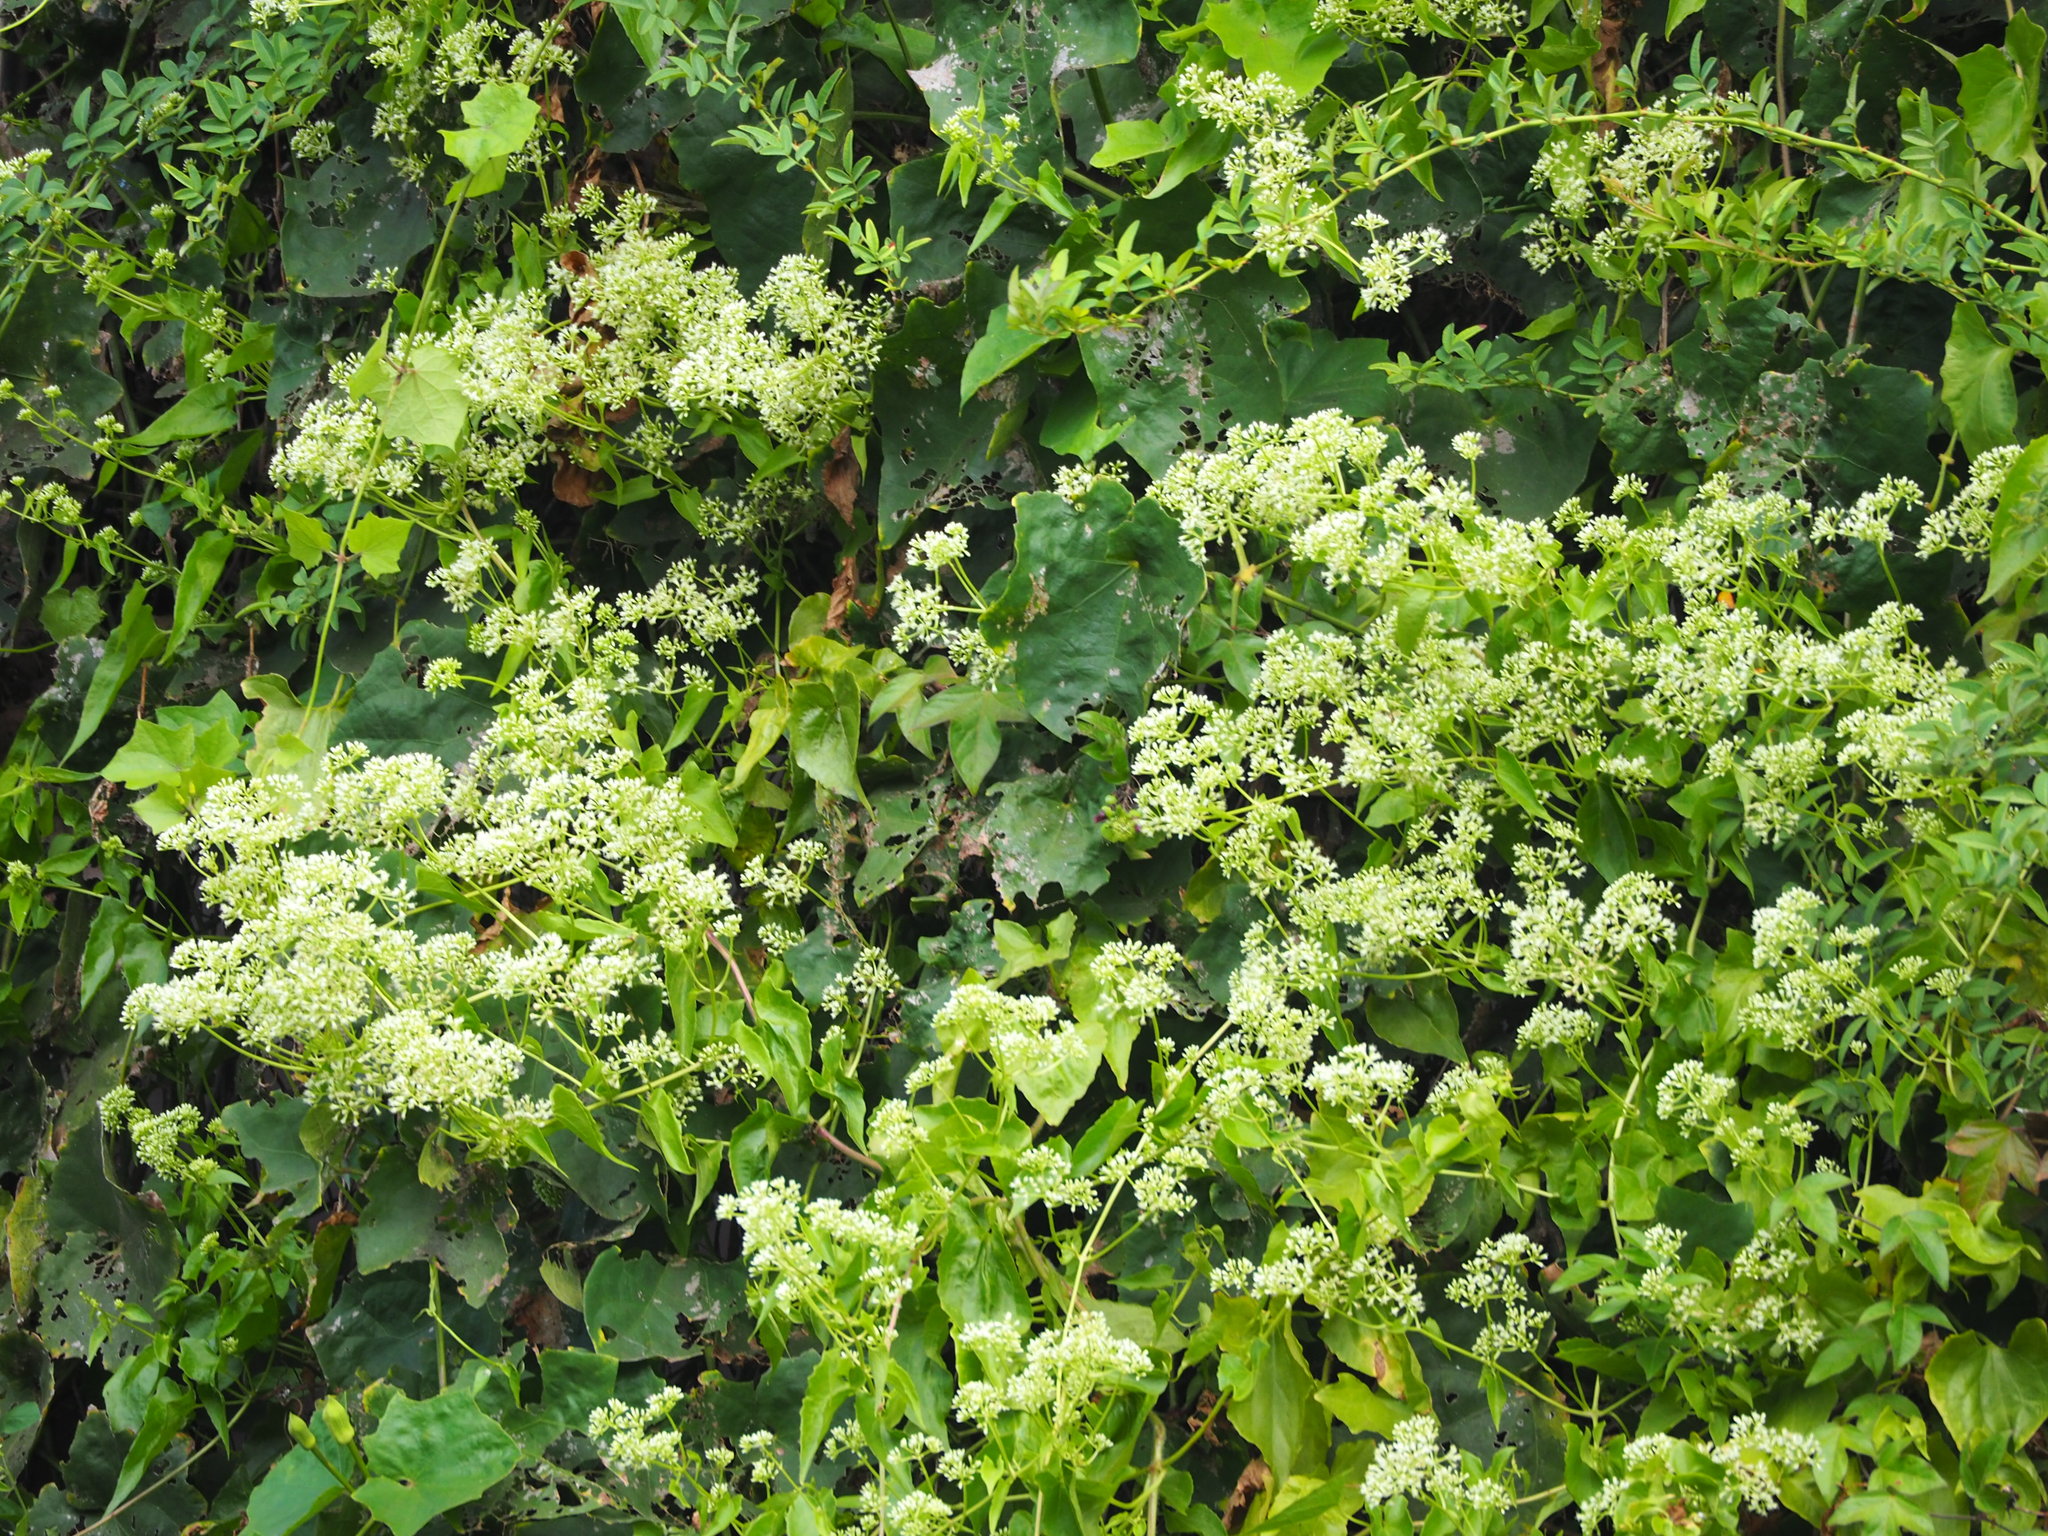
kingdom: Plantae
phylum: Tracheophyta
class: Magnoliopsida
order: Asterales
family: Asteraceae
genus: Mikania
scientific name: Mikania micrantha
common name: Mile-a-minute
